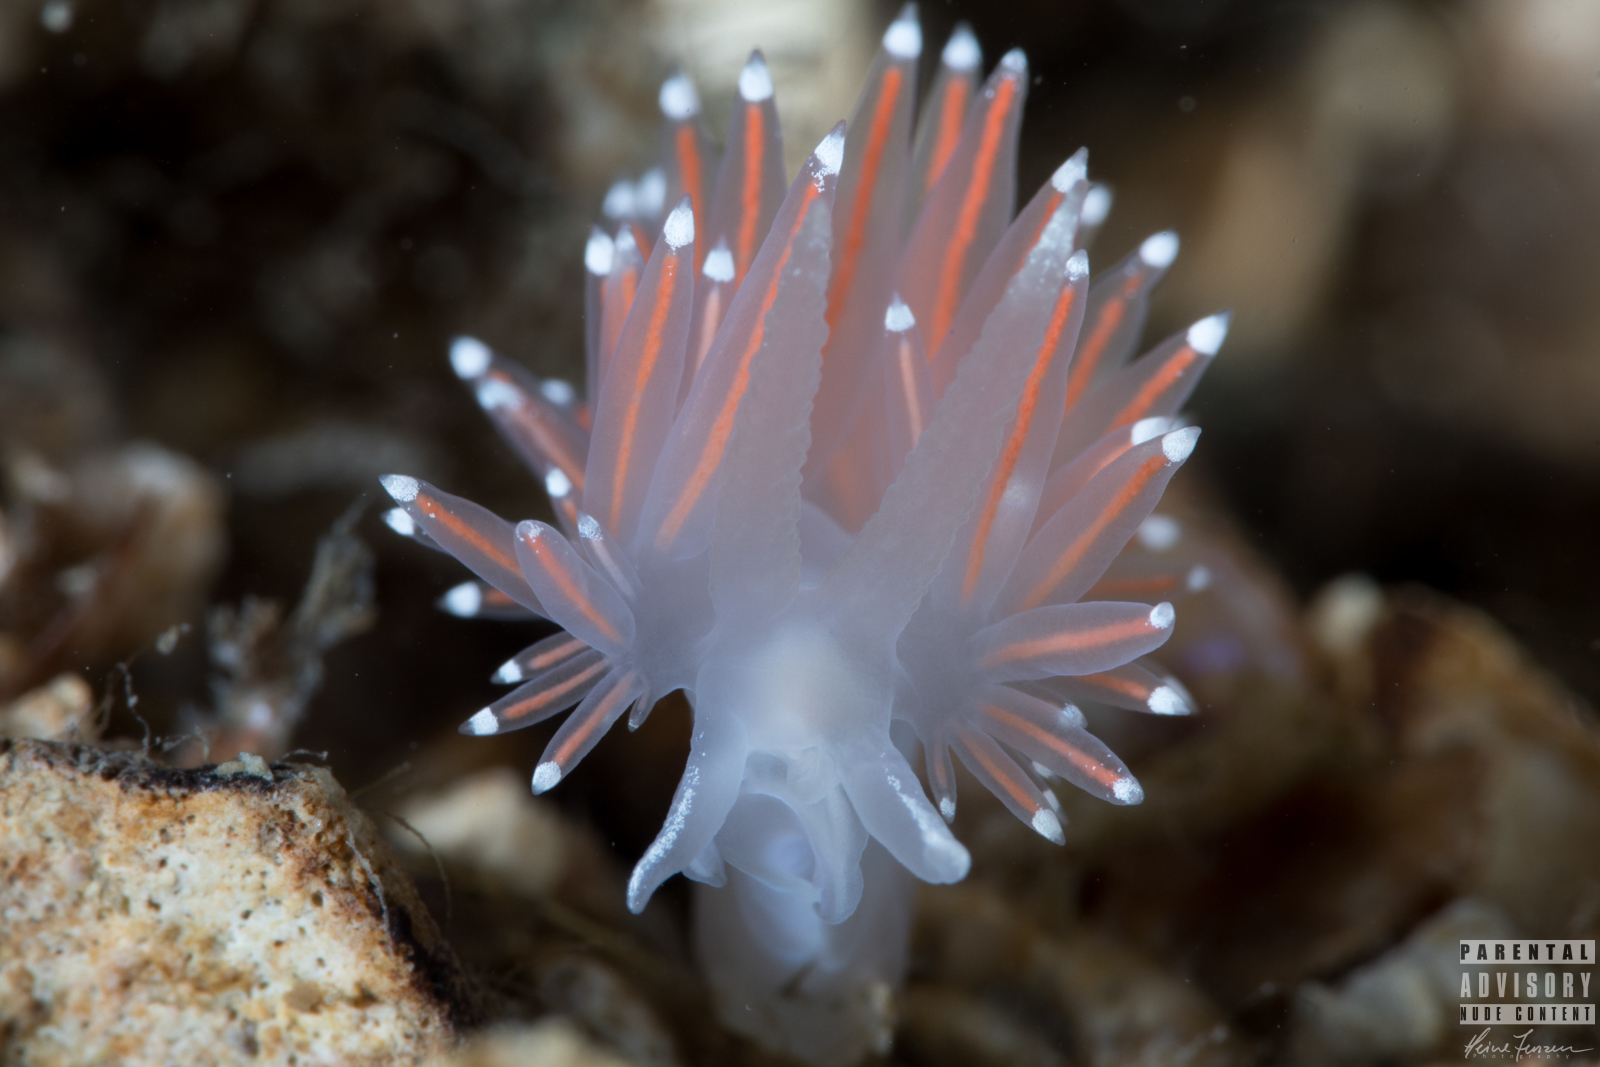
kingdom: Animalia
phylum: Mollusca
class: Gastropoda
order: Nudibranchia
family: Coryphellidae
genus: Coryphella
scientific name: Coryphella browni
